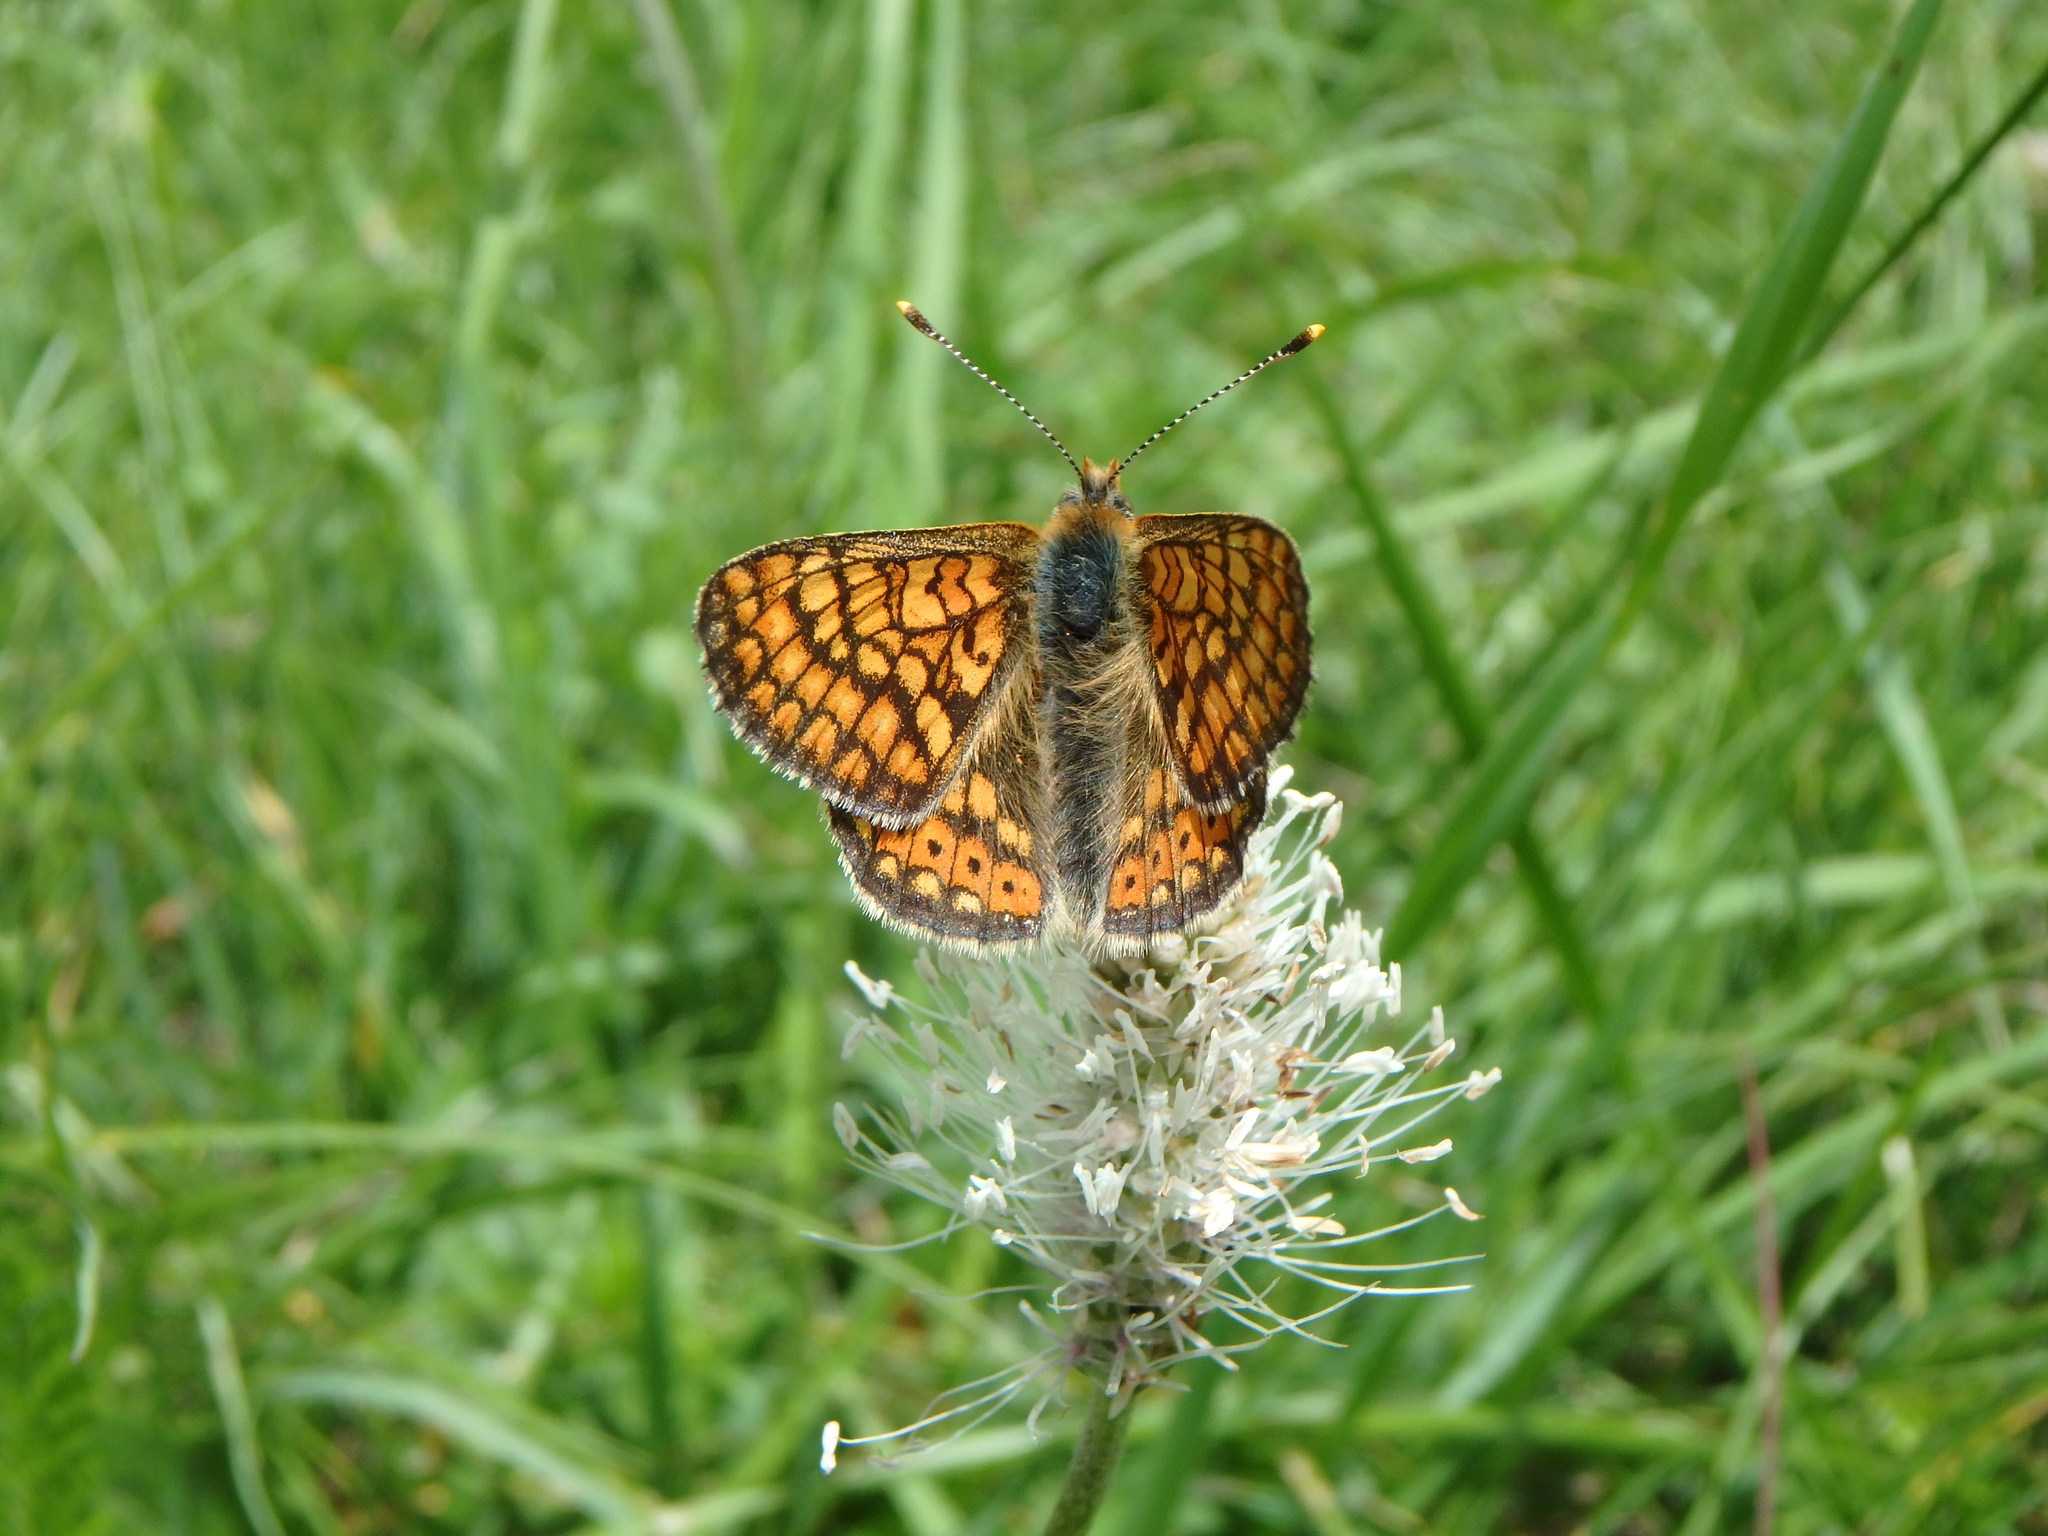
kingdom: Animalia
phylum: Arthropoda
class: Insecta
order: Lepidoptera
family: Nymphalidae
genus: Euphydryas
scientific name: Euphydryas aurinia
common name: Marsh fritillary
